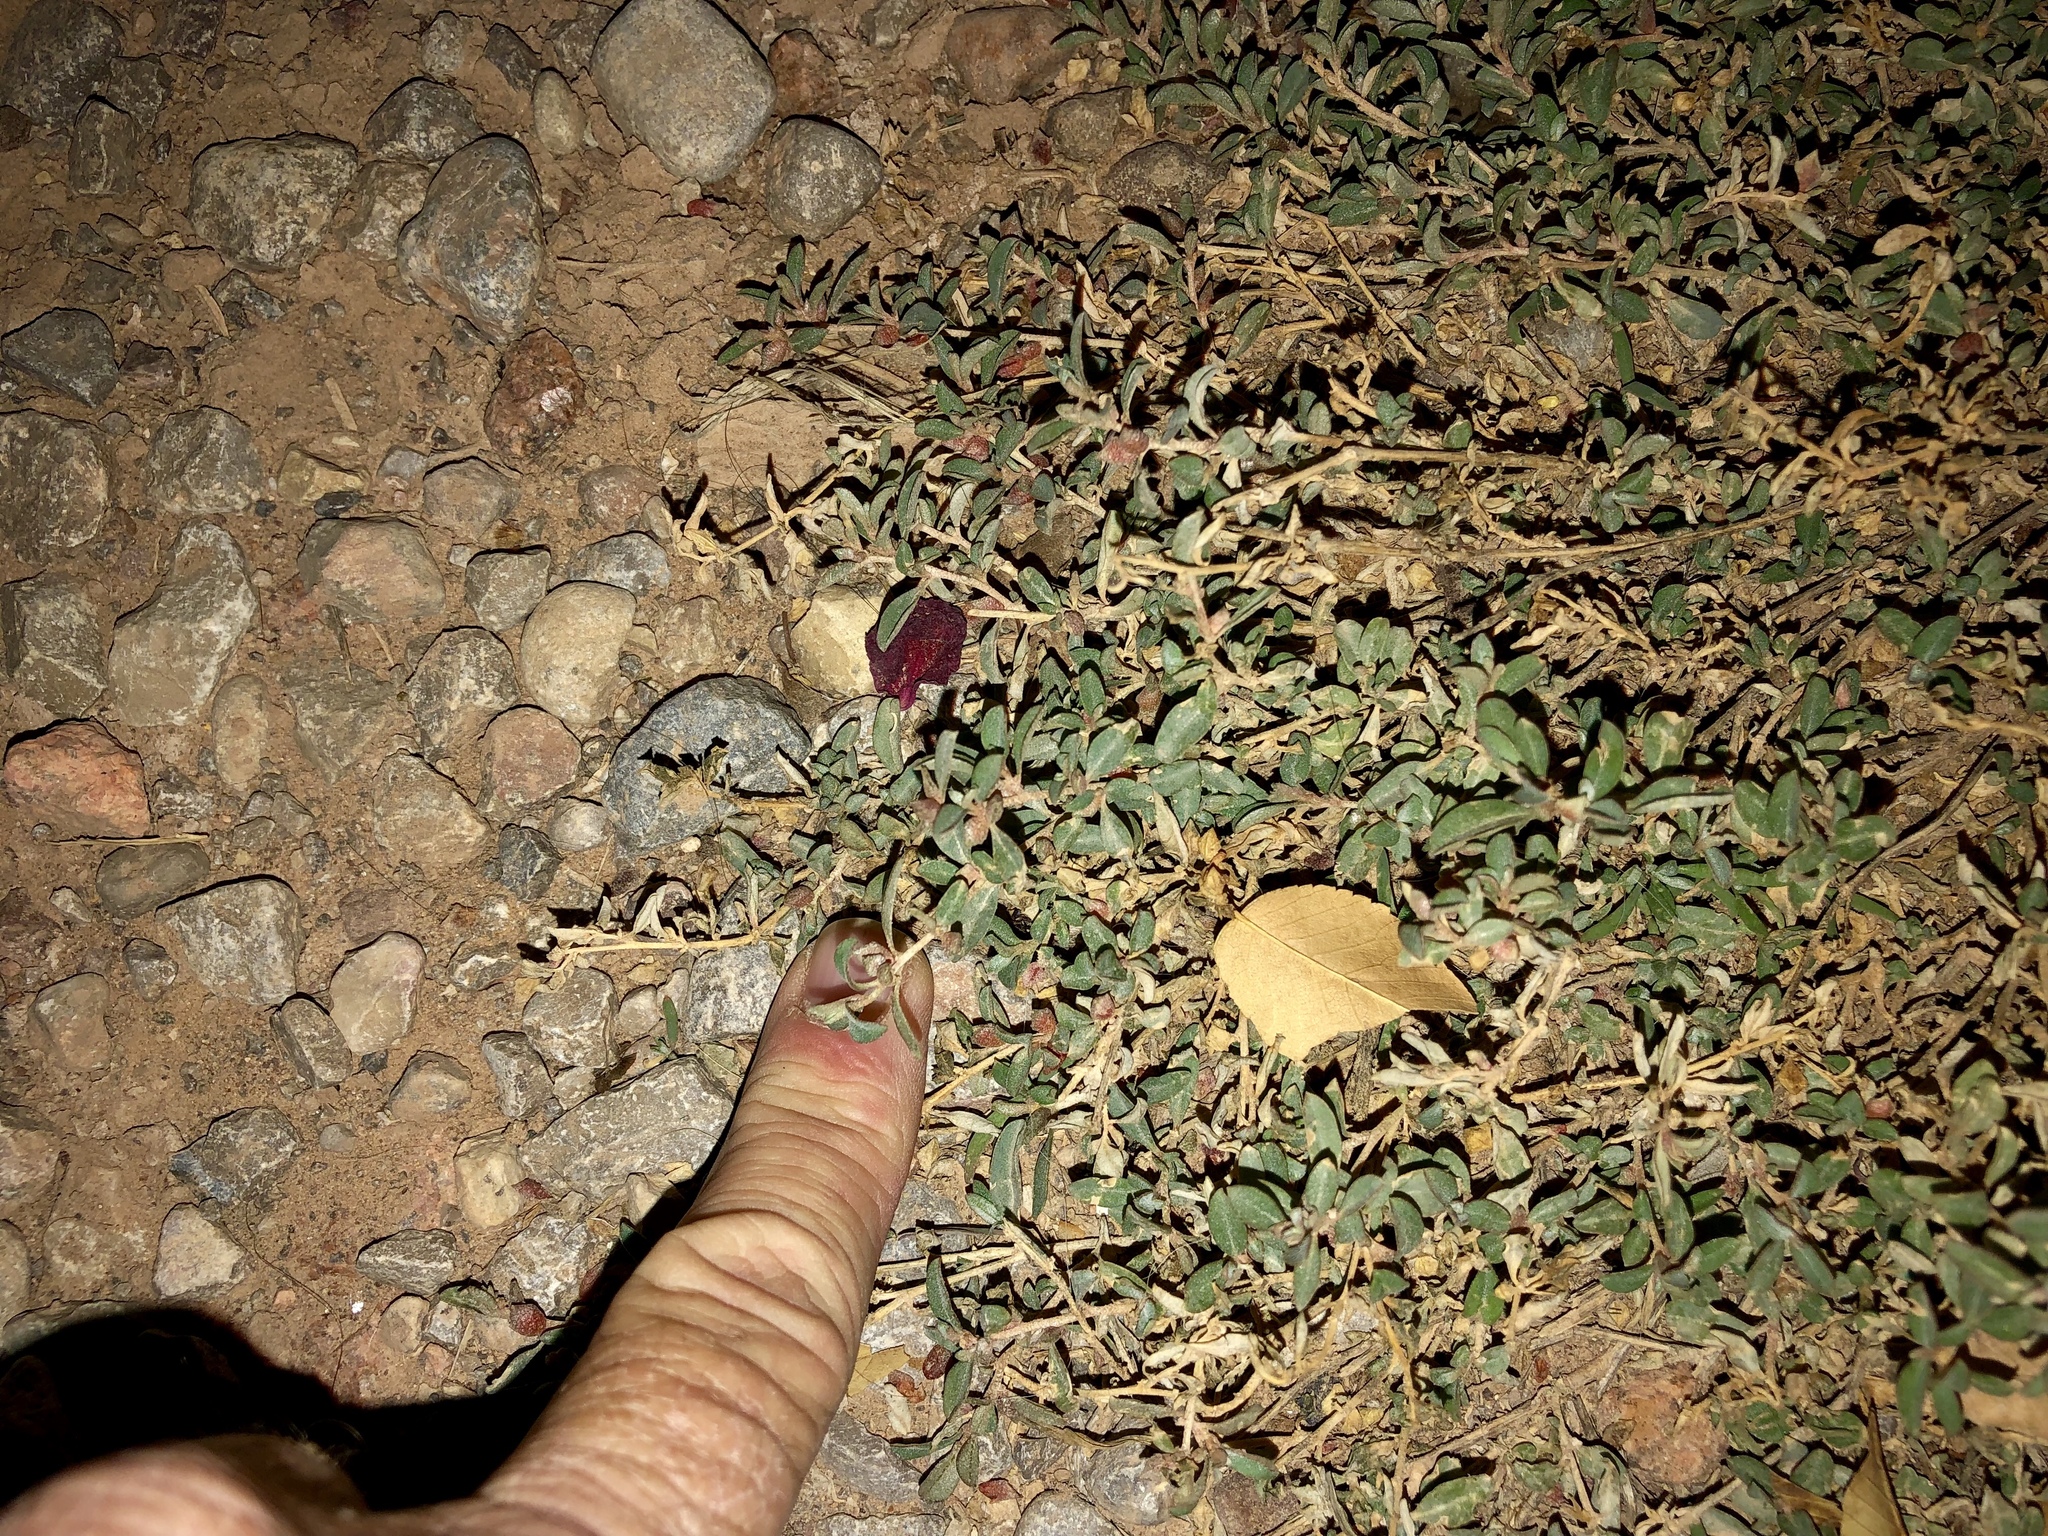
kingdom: Plantae
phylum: Tracheophyta
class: Magnoliopsida
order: Caryophyllales
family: Amaranthaceae
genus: Atriplex
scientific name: Atriplex semibaccata
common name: Australian saltbush
